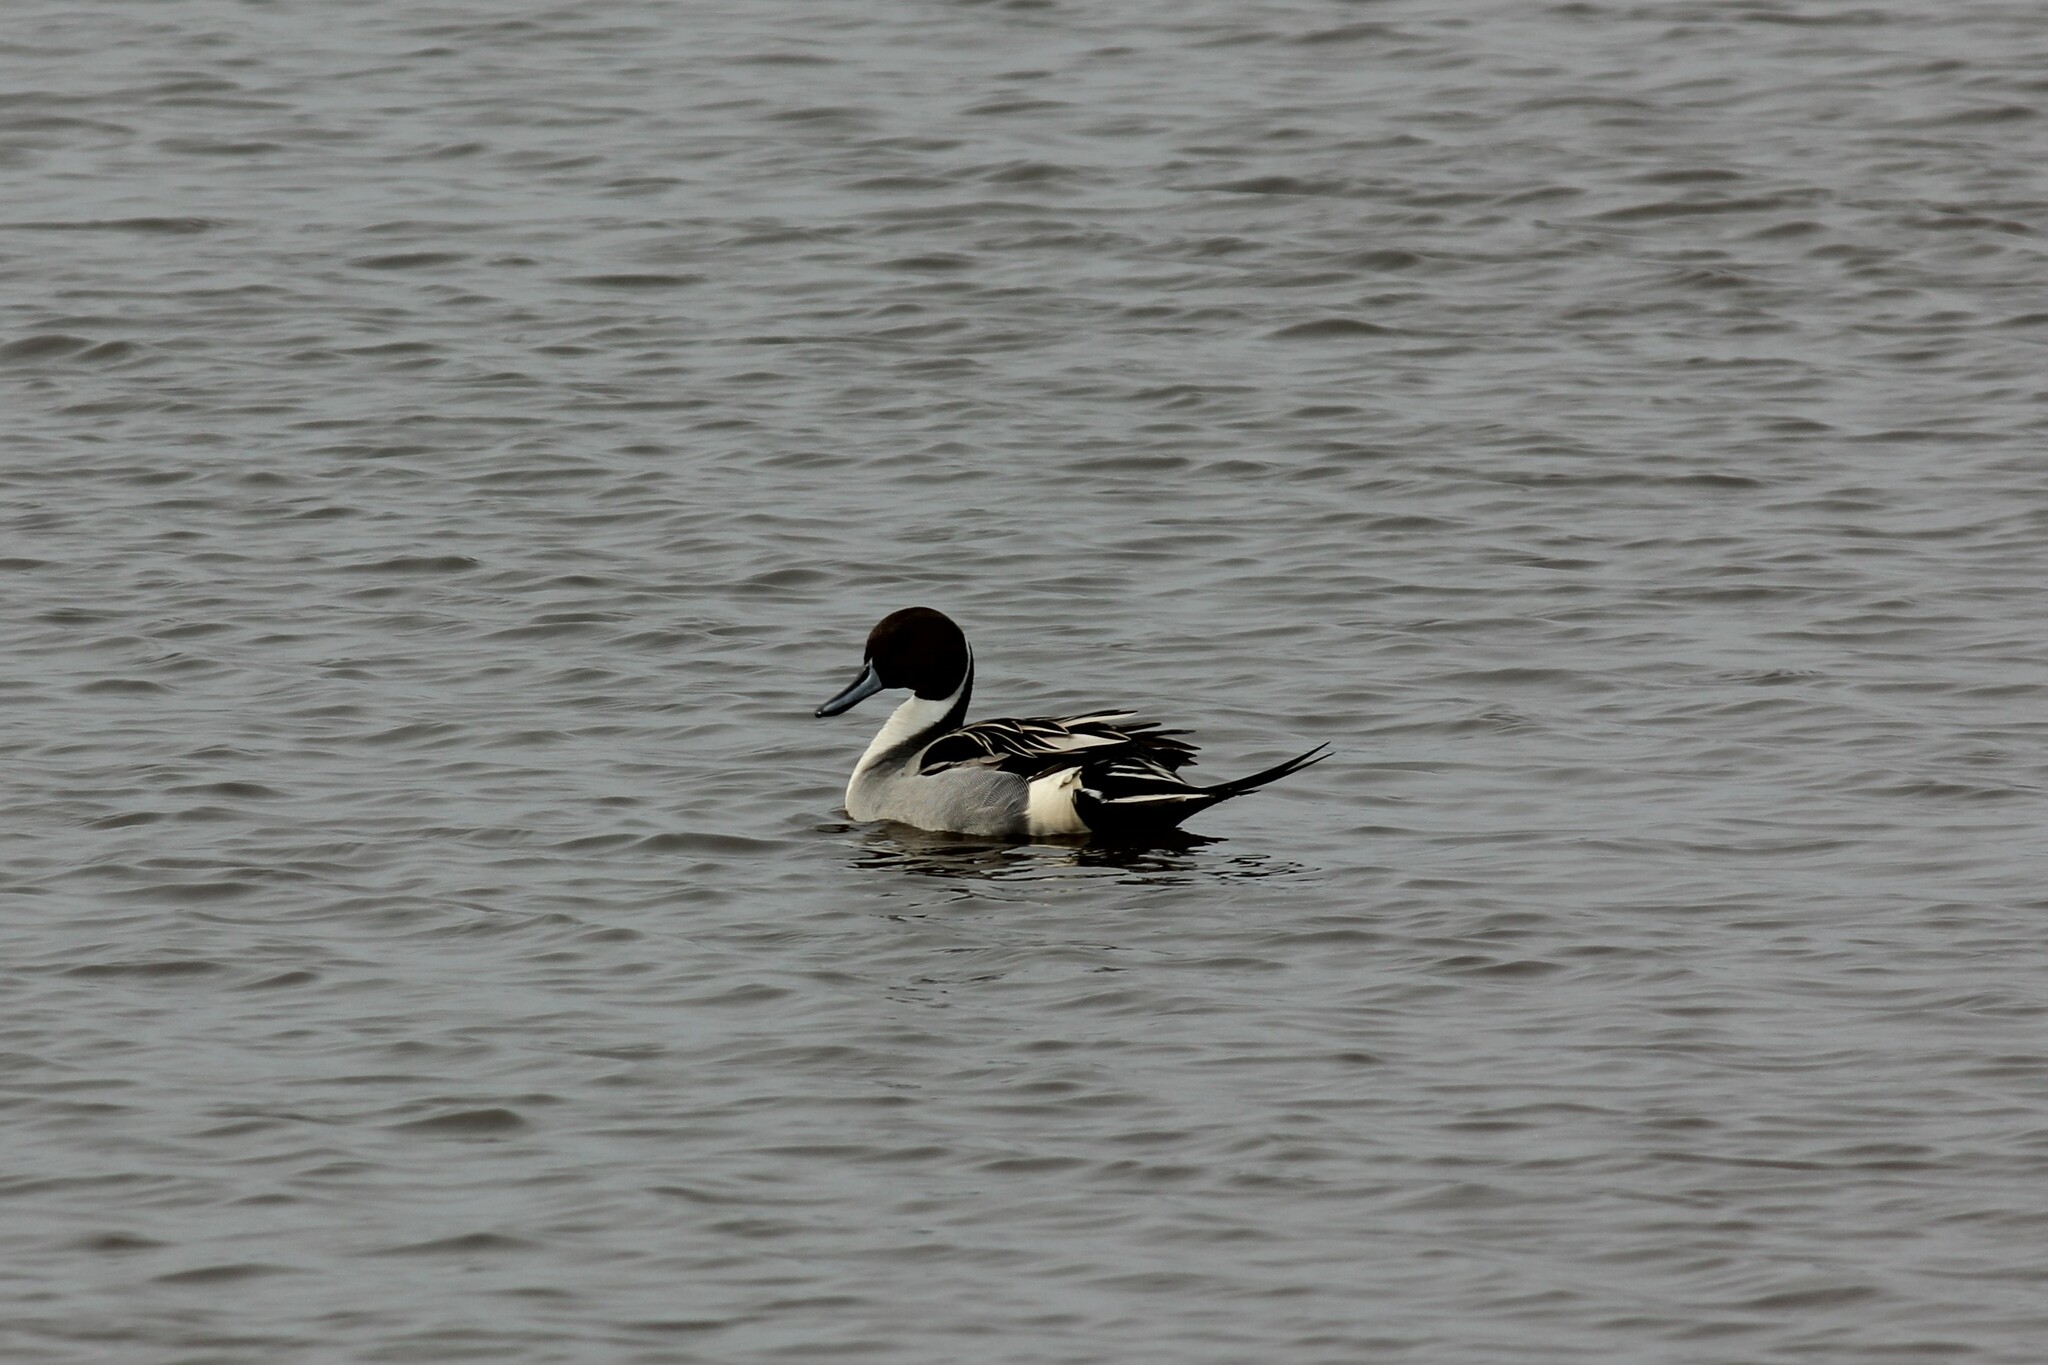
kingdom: Animalia
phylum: Chordata
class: Aves
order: Anseriformes
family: Anatidae
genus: Anas
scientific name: Anas acuta
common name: Northern pintail
